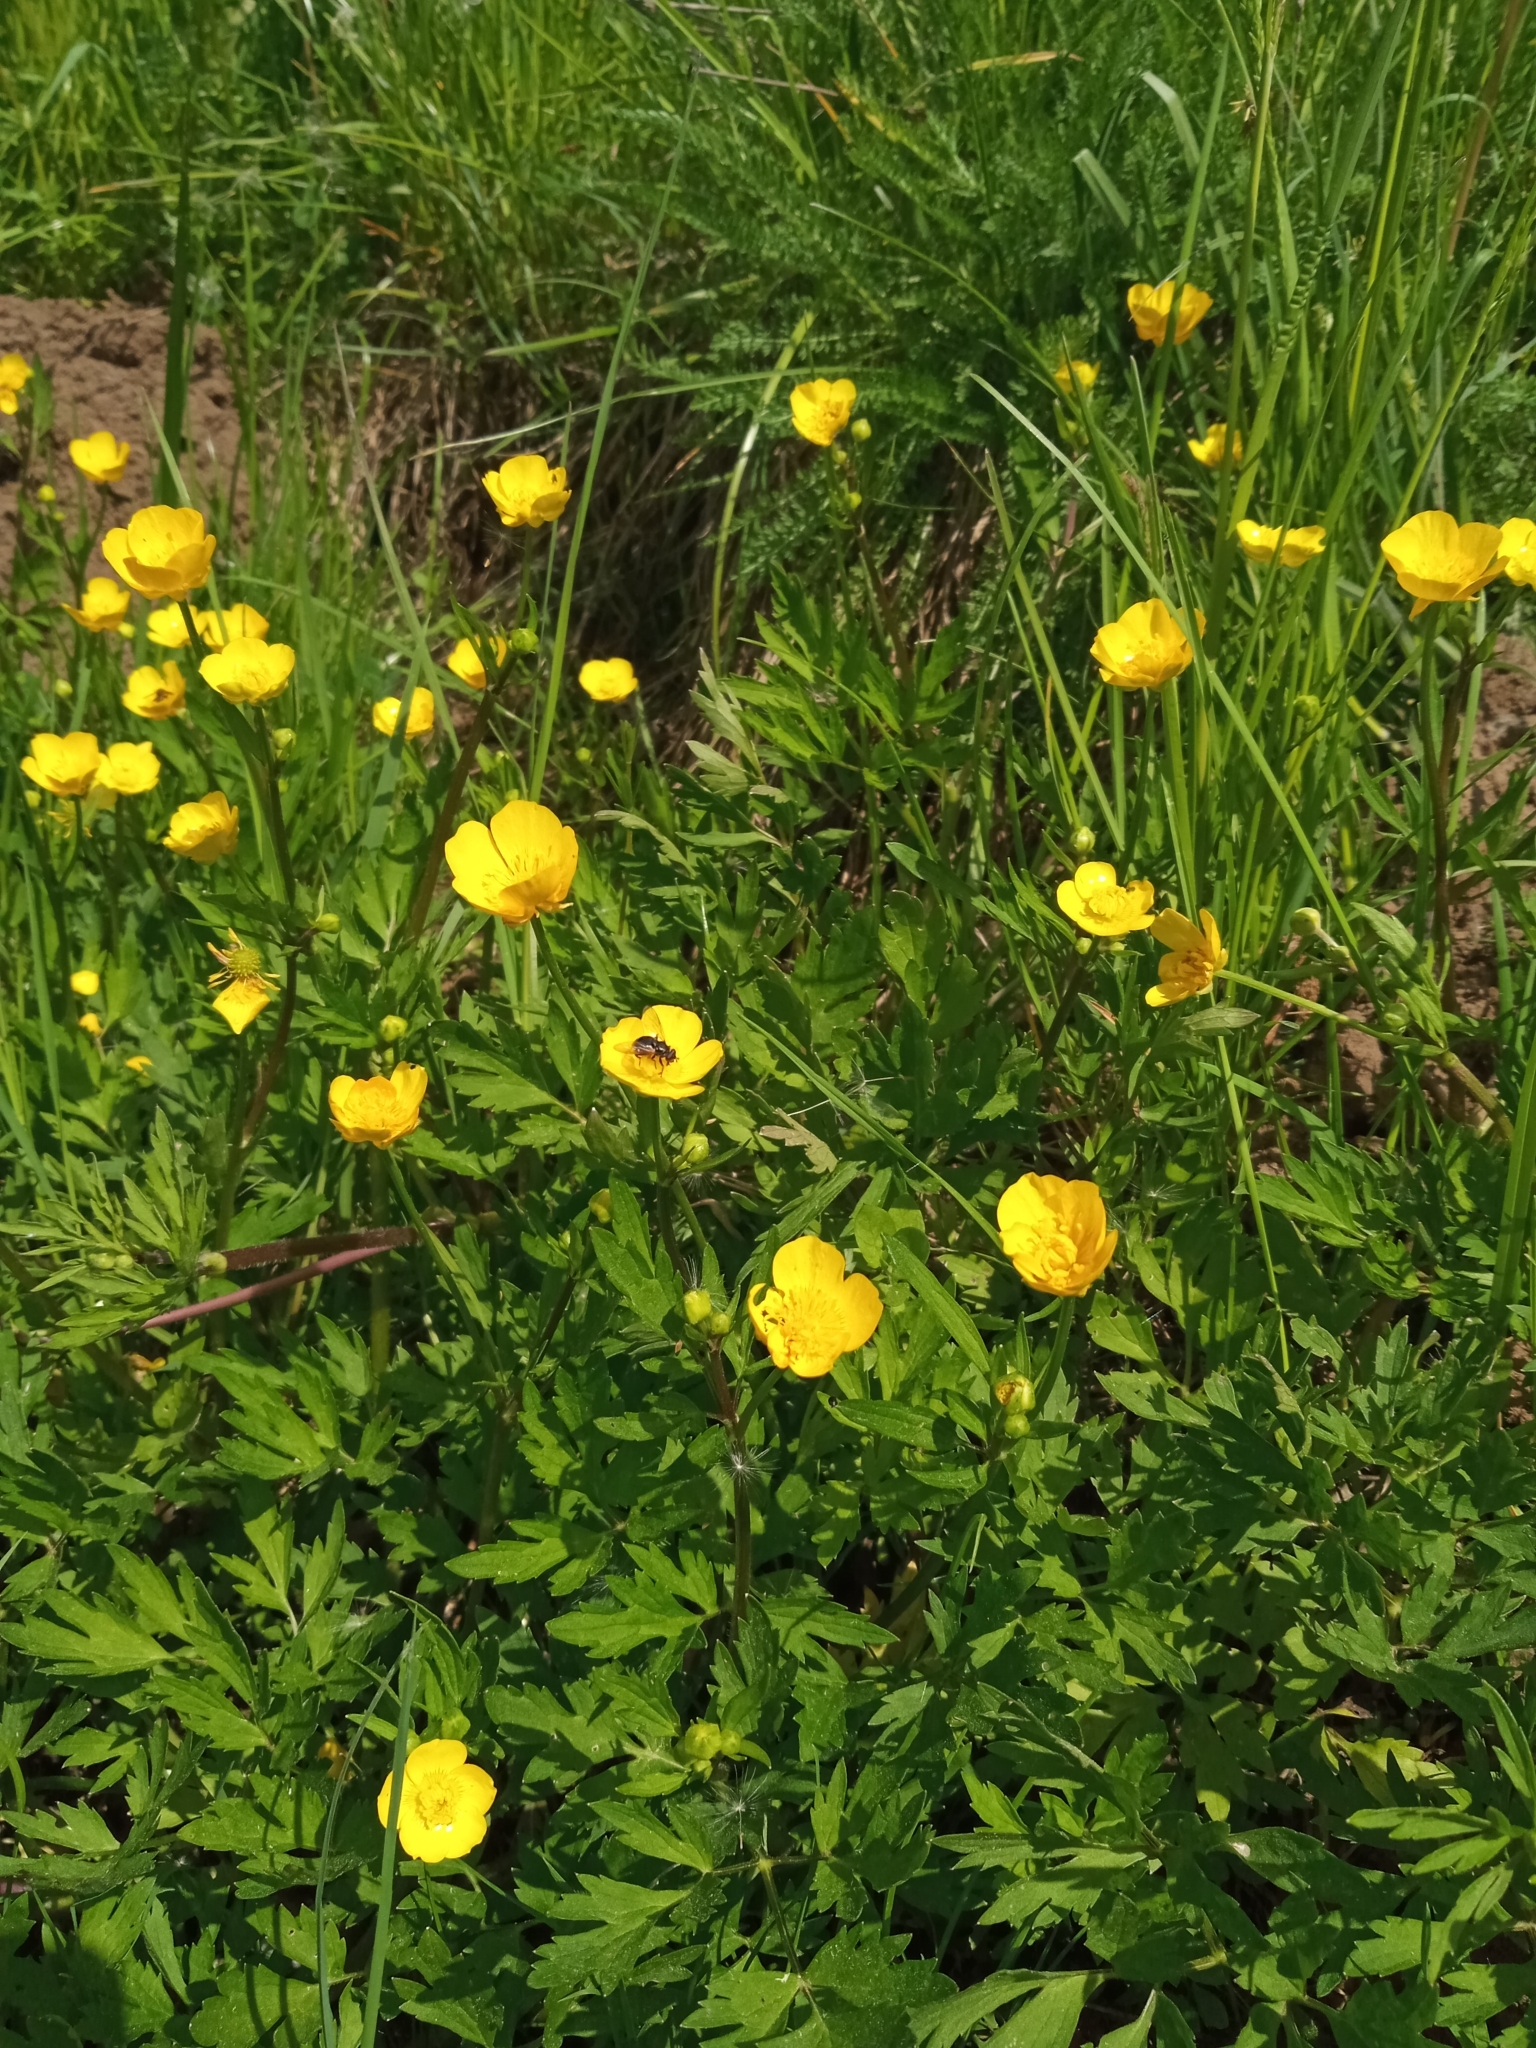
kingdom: Plantae
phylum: Tracheophyta
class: Magnoliopsida
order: Ranunculales
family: Ranunculaceae
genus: Ranunculus
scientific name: Ranunculus repens
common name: Creeping buttercup
